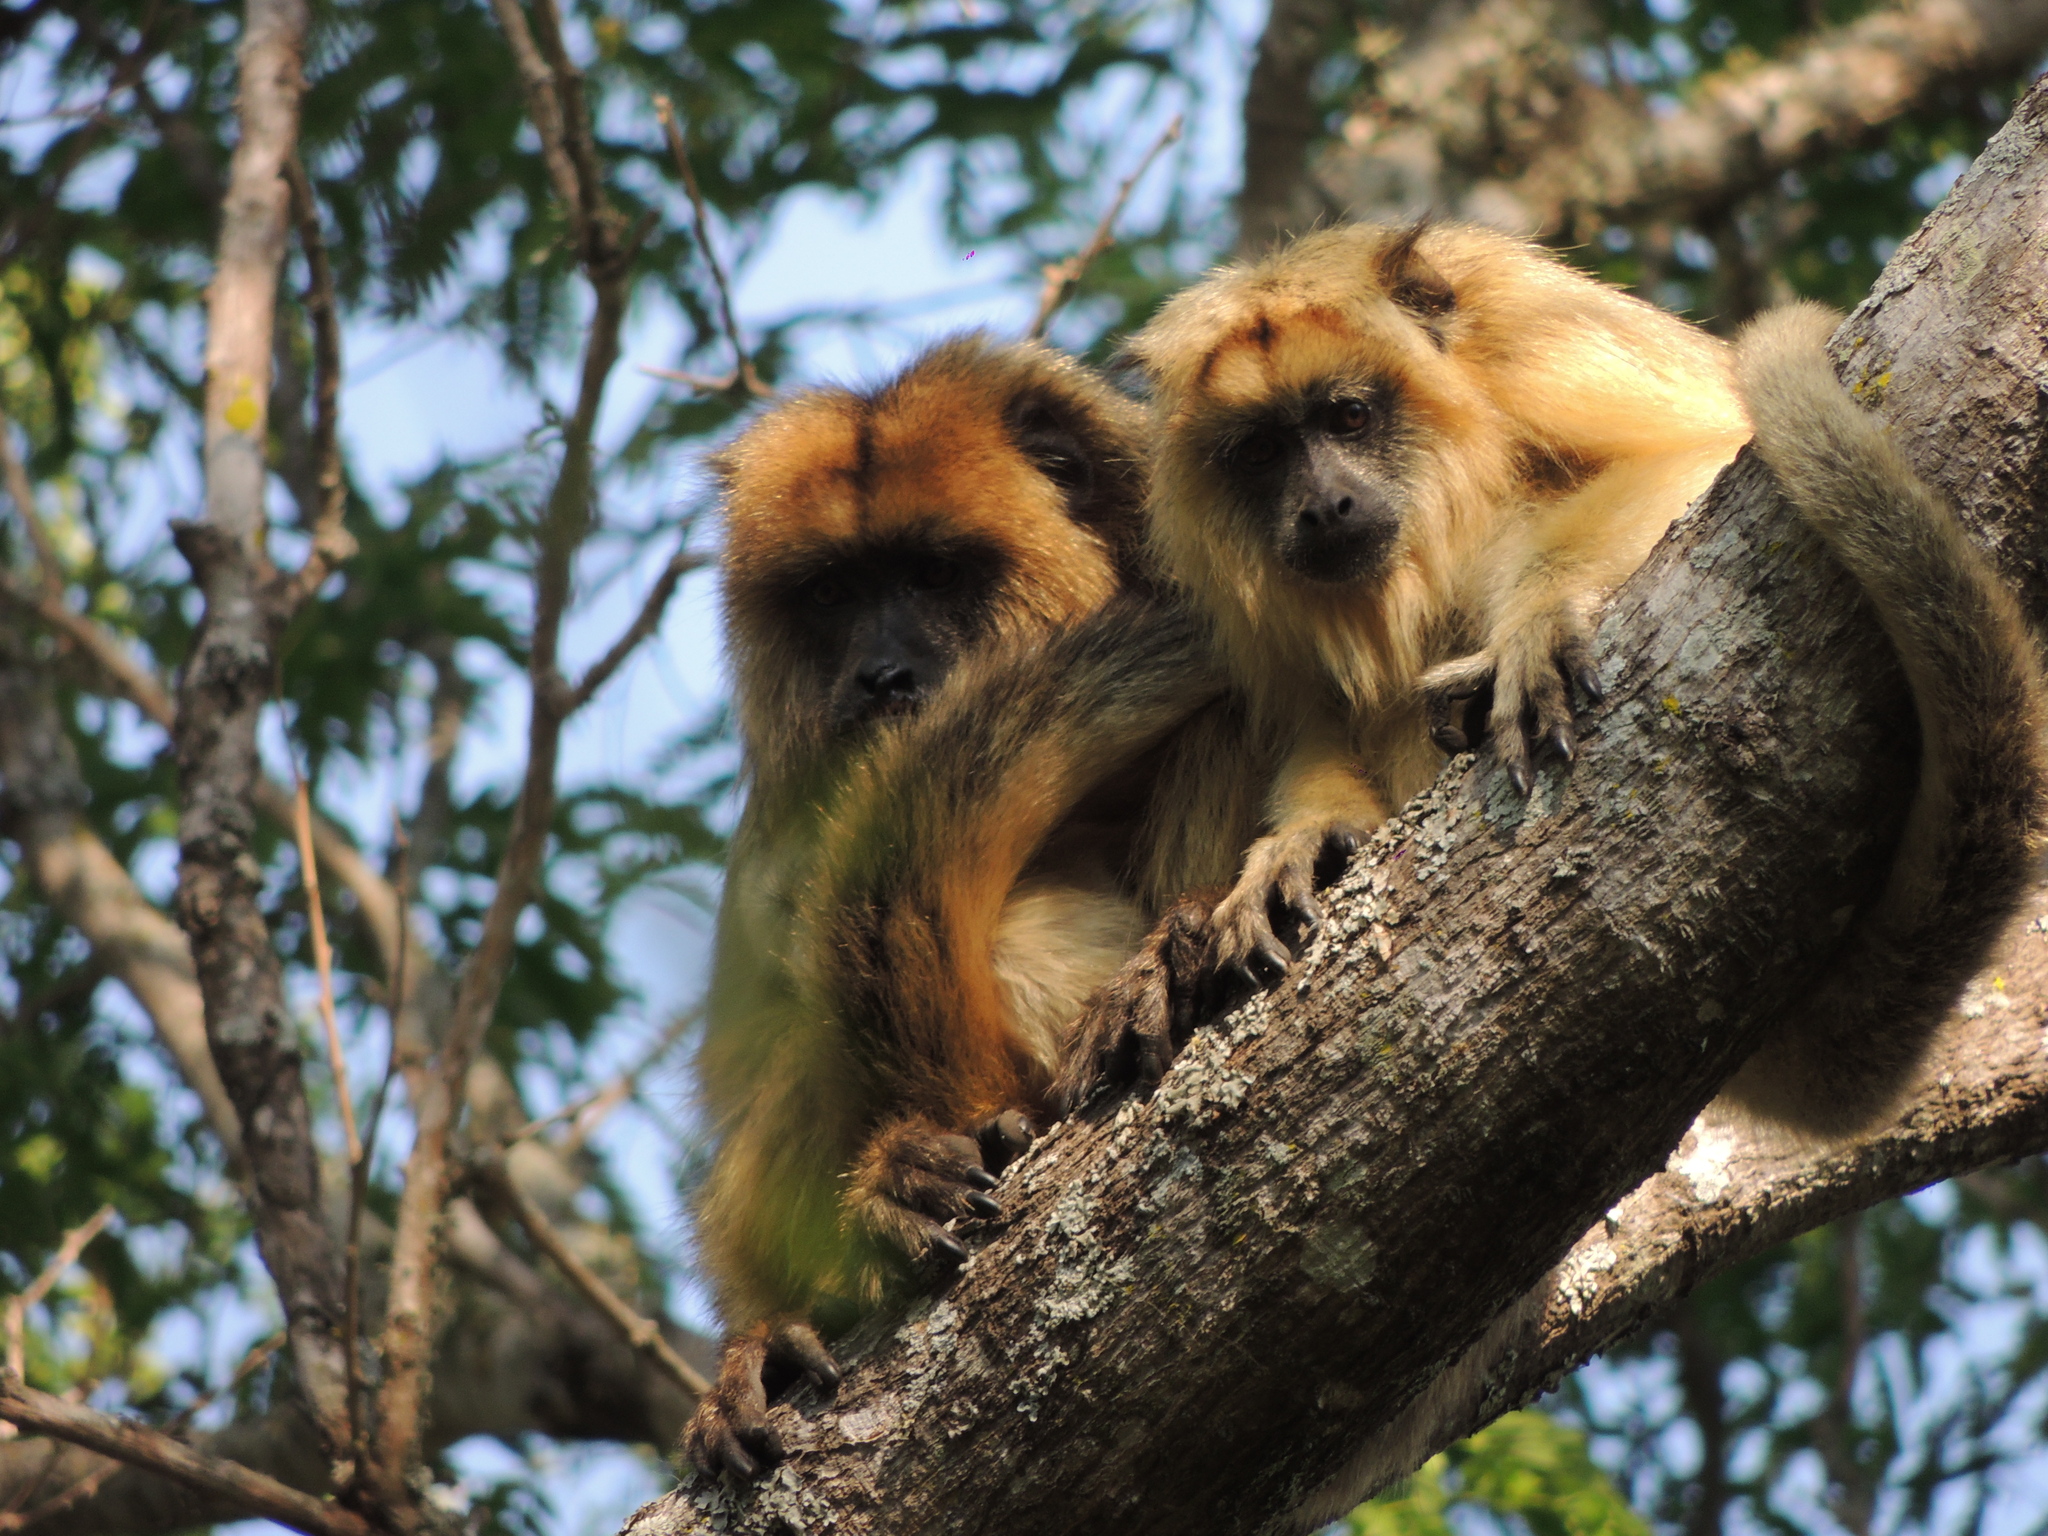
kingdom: Animalia
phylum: Chordata
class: Mammalia
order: Primates
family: Atelidae
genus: Alouatta
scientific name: Alouatta caraya
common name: Black howler
